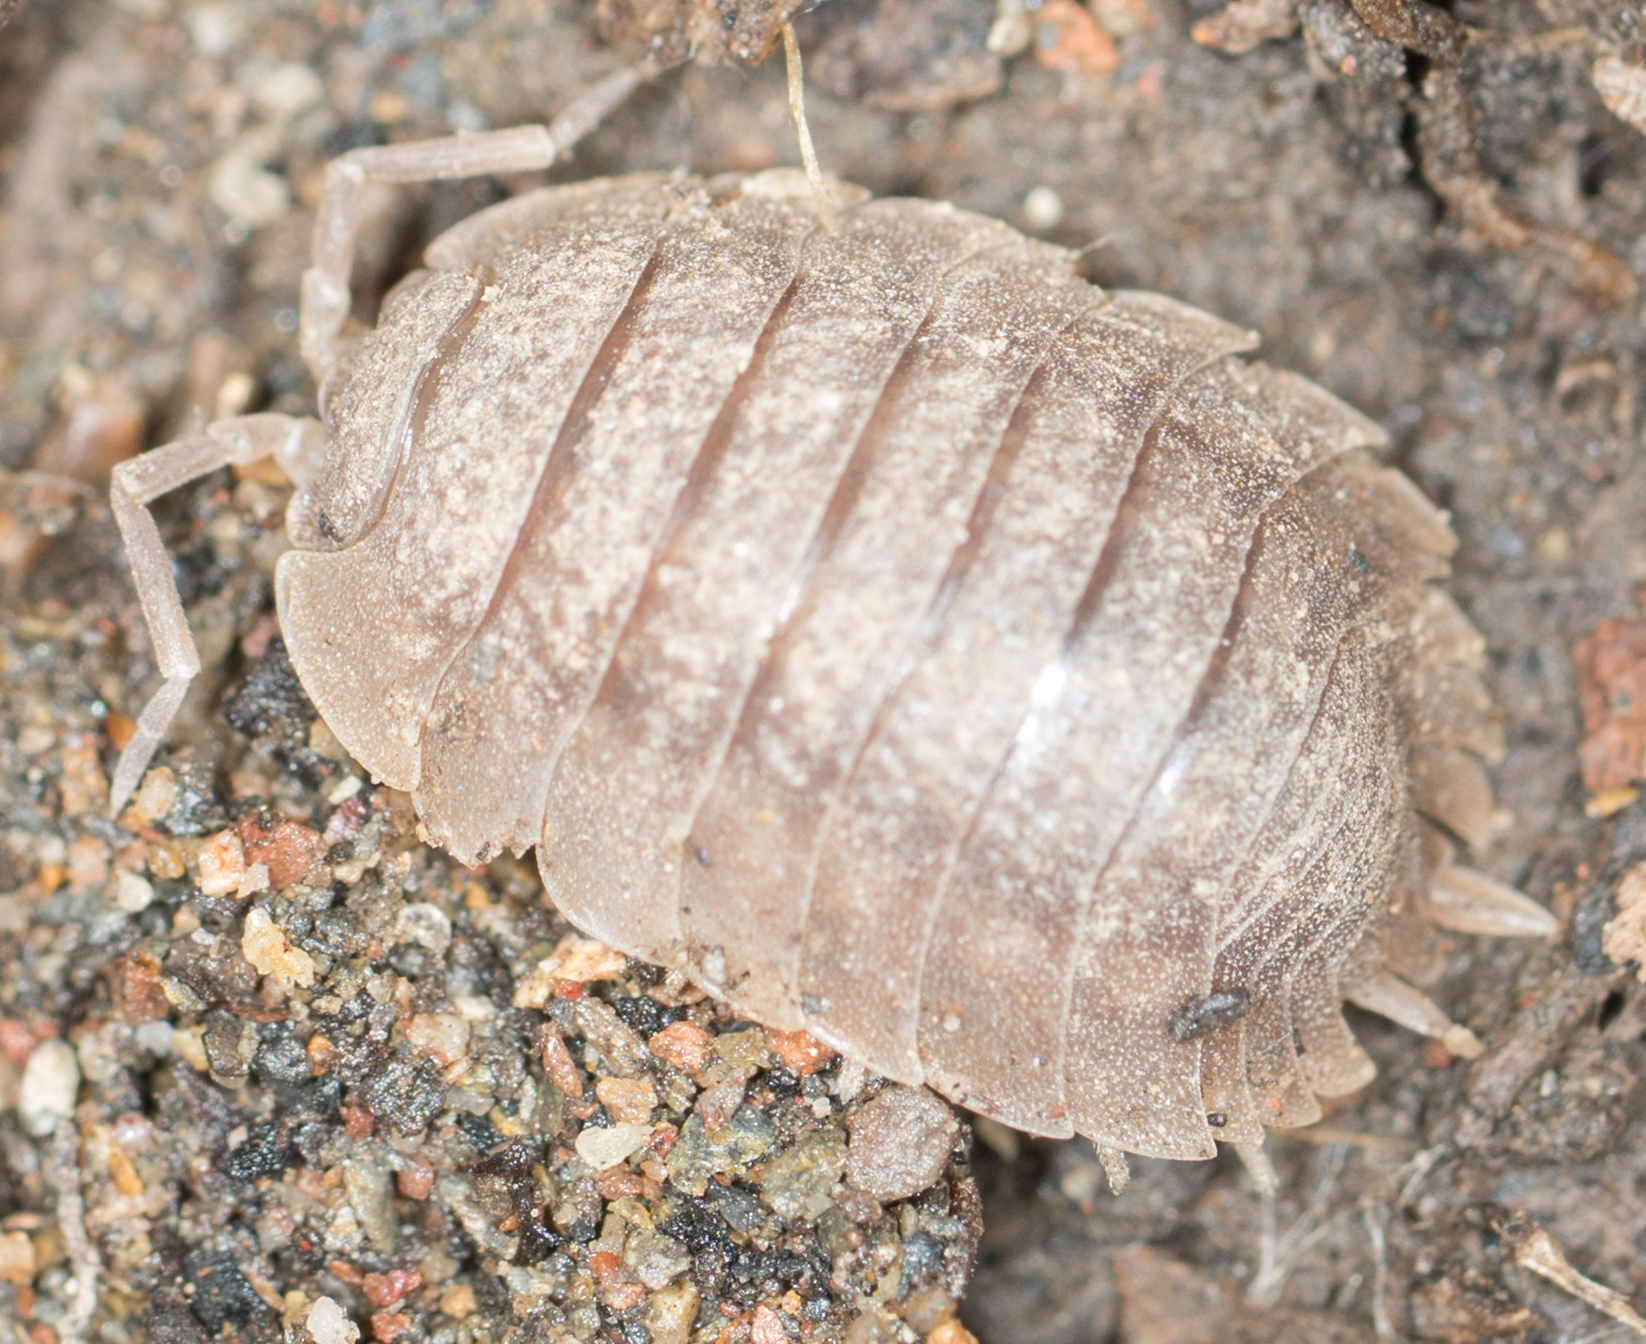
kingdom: Animalia
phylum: Arthropoda
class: Malacostraca
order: Isopoda
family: Porcellionidae
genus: Porcellio
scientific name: Porcellio dilatatus
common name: Isopod
